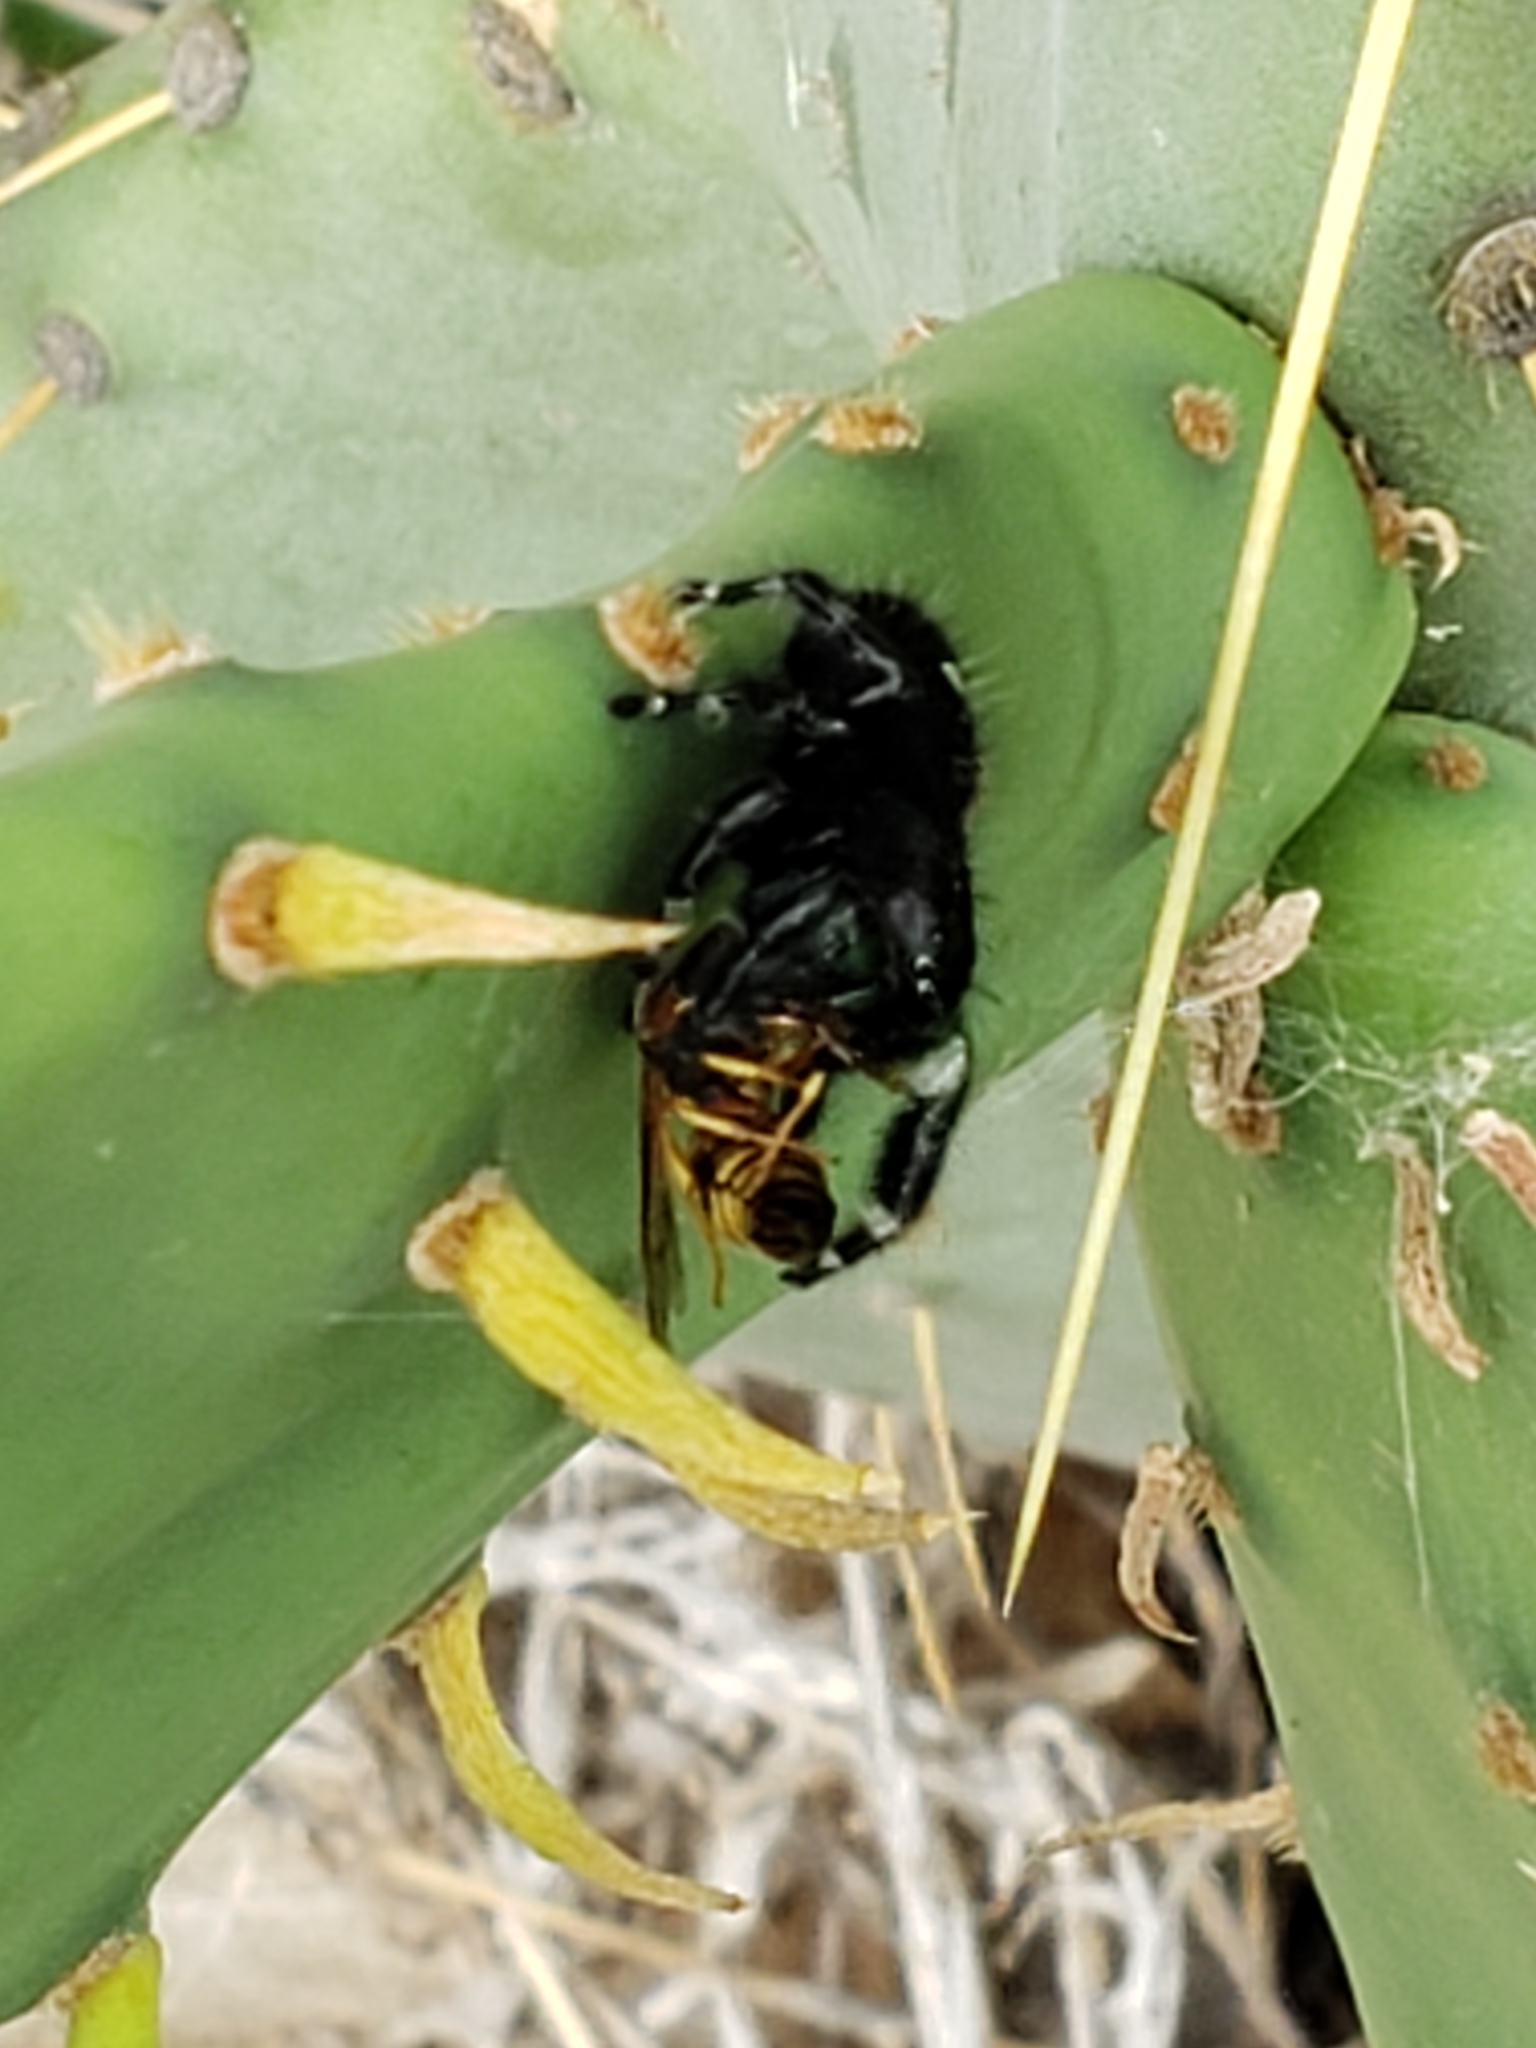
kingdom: Animalia
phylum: Arthropoda
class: Arachnida
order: Araneae
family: Salticidae
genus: Phidippus
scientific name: Phidippus audax
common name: Bold jumper
